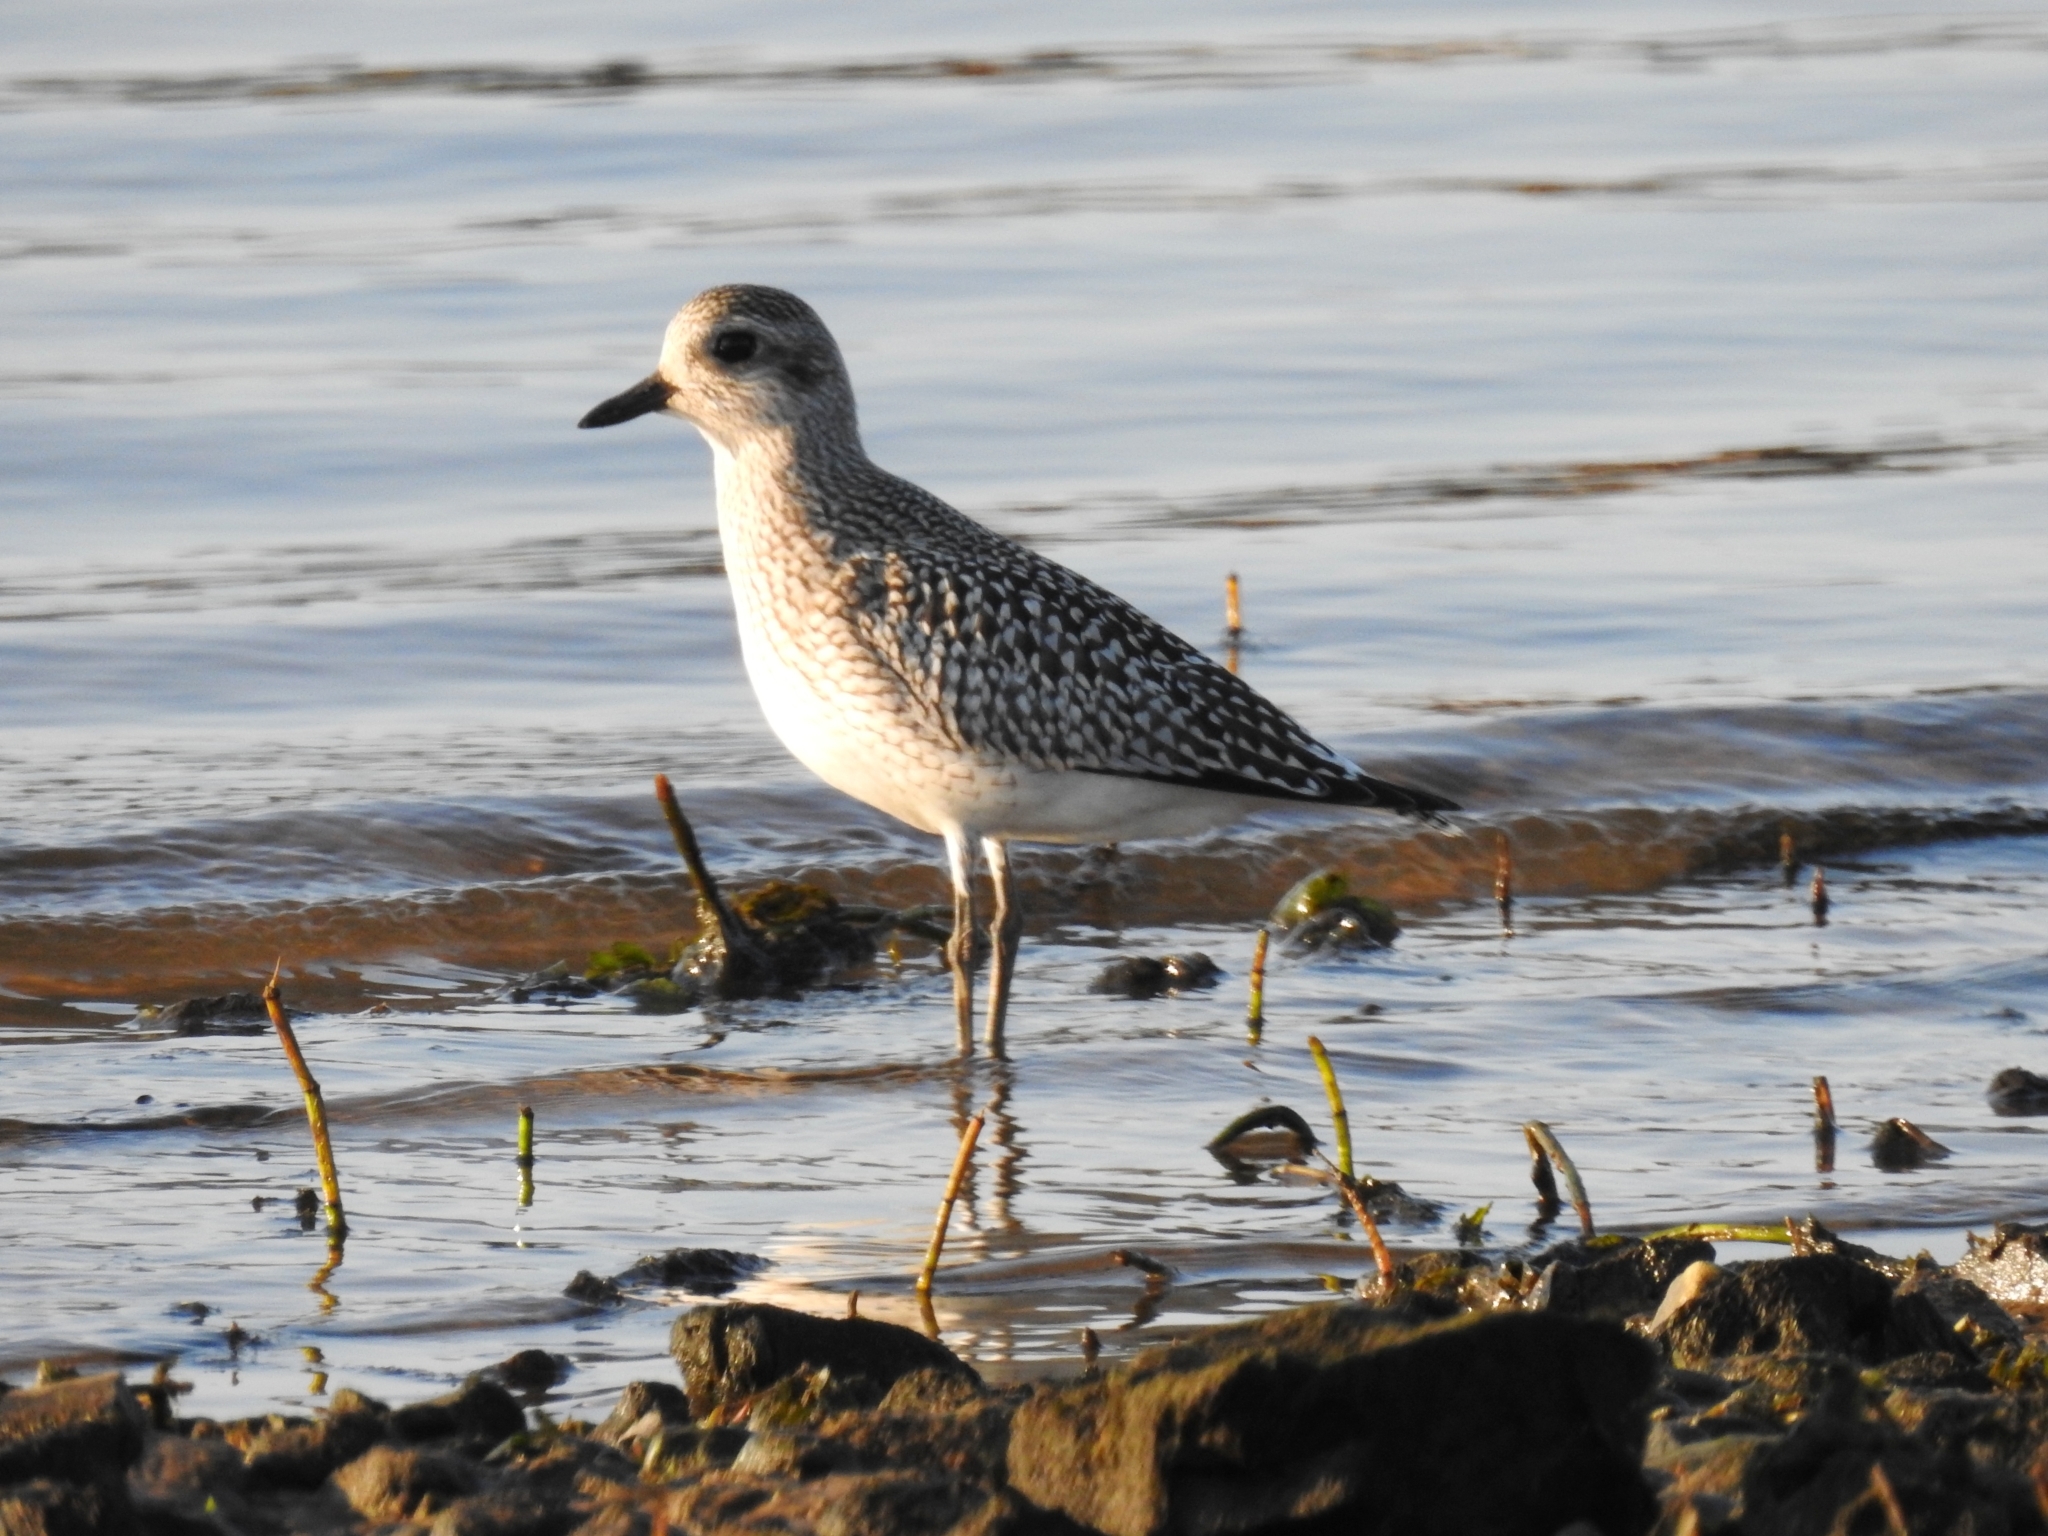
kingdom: Animalia
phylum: Chordata
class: Aves
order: Charadriiformes
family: Charadriidae
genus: Pluvialis
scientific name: Pluvialis squatarola
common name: Grey plover
